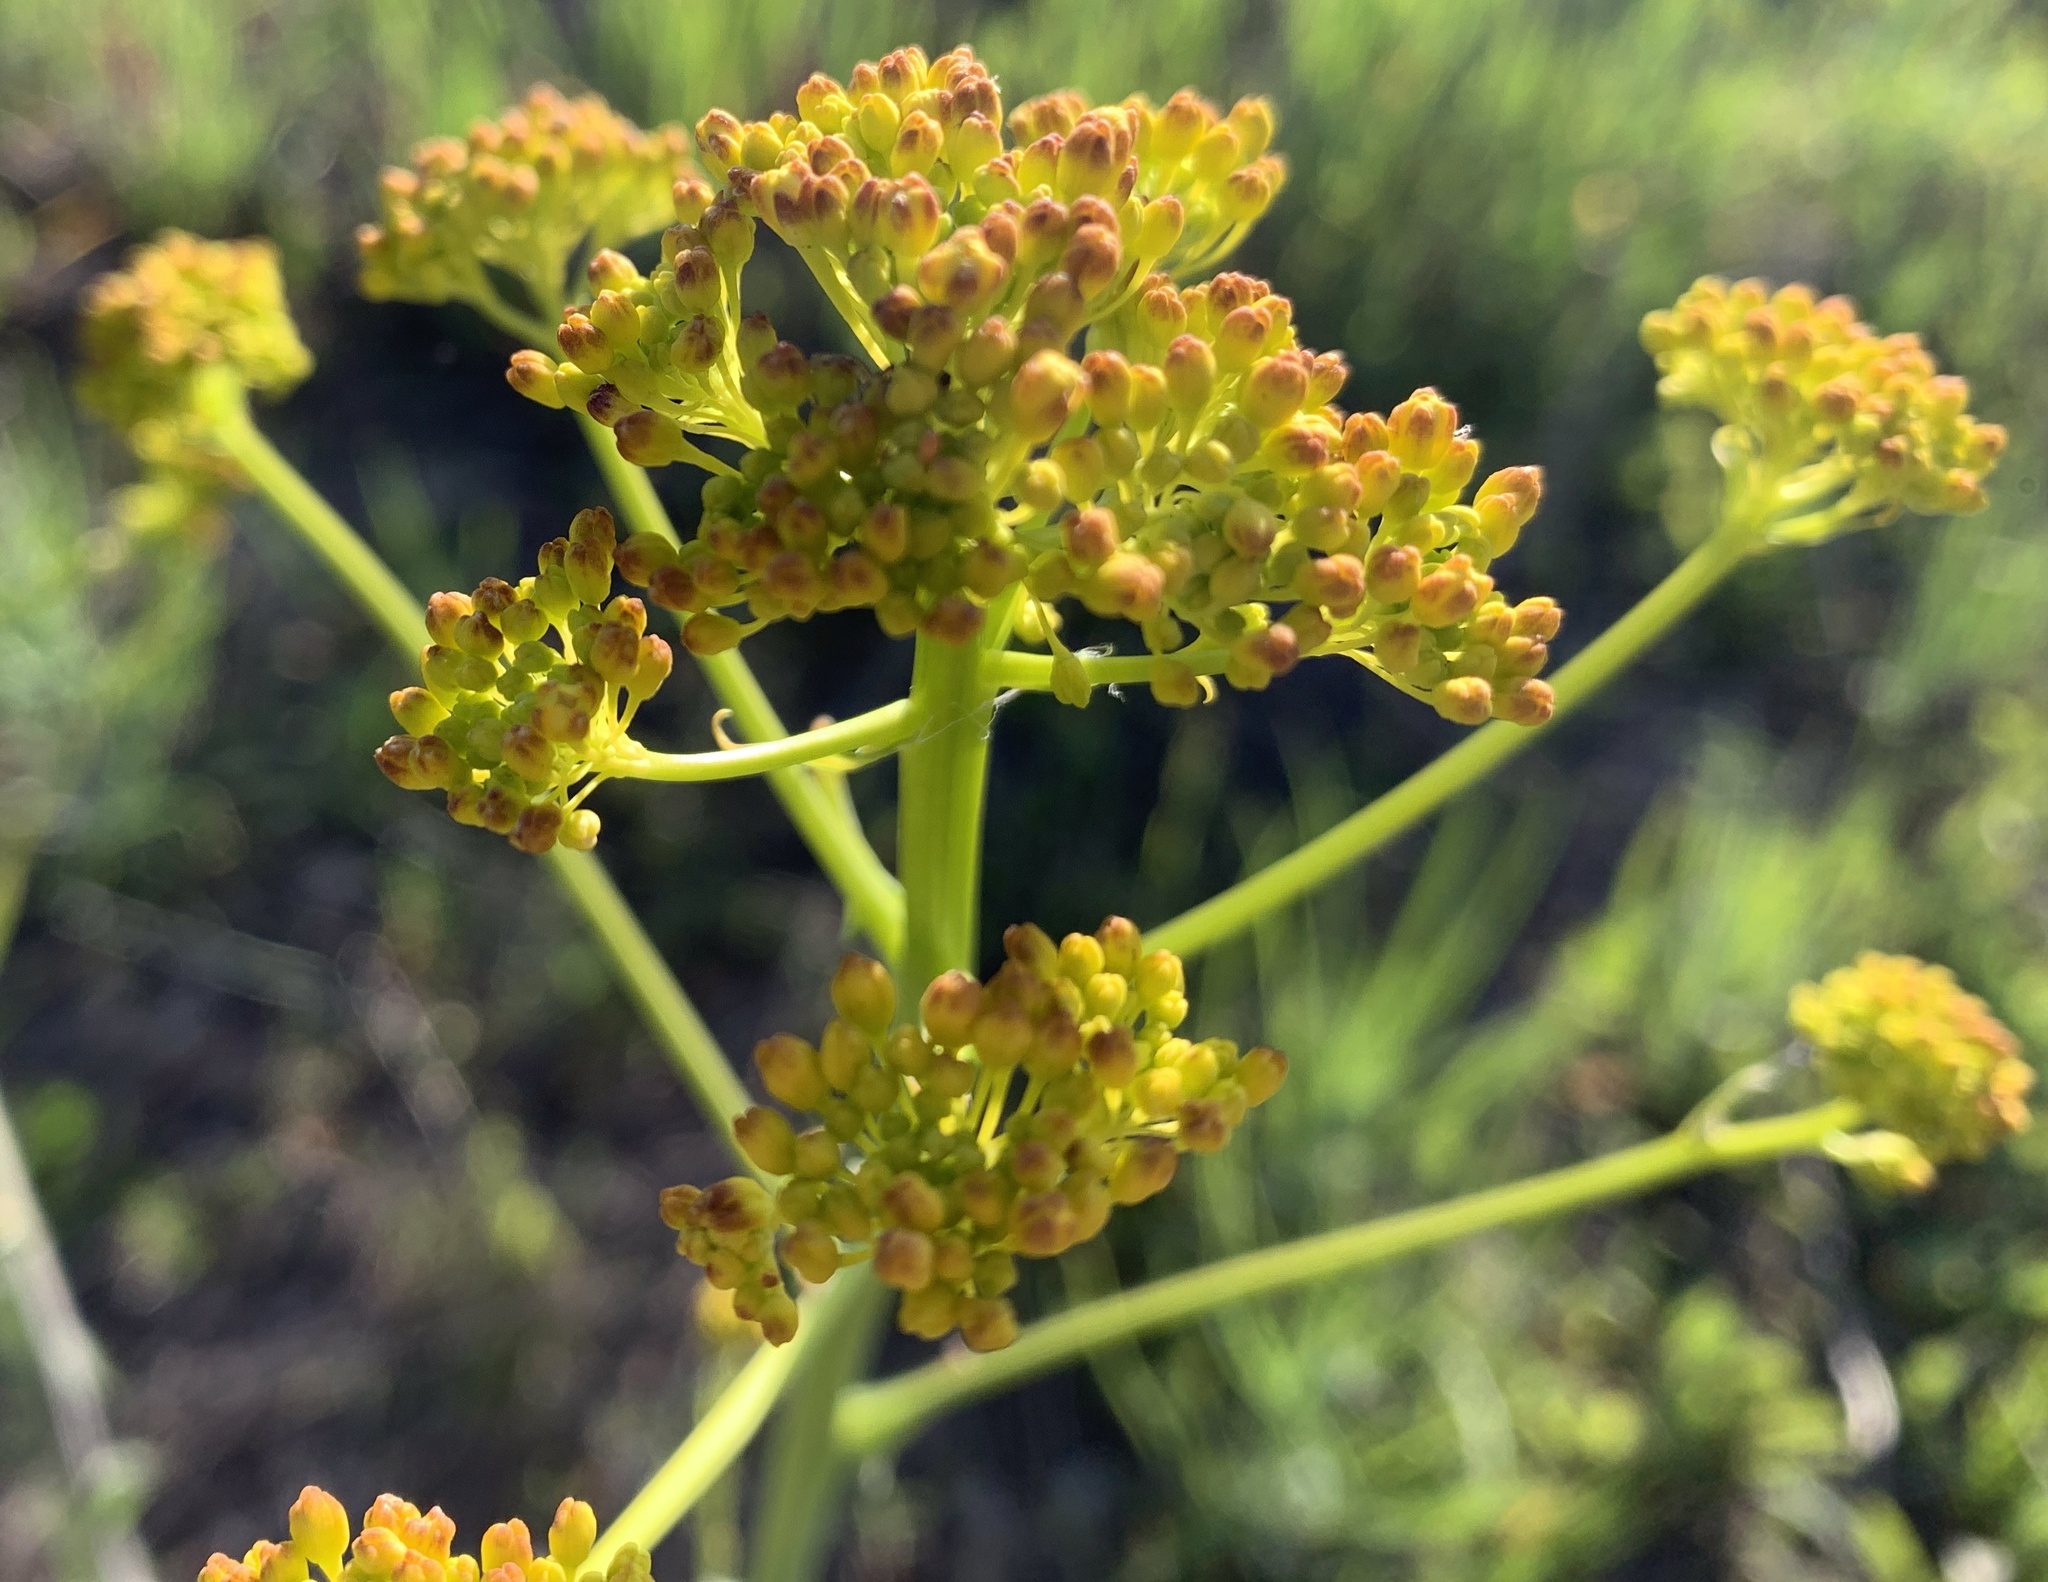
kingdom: Plantae
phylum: Tracheophyta
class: Magnoliopsida
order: Brassicales
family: Brassicaceae
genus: Isatis
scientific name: Isatis tinctoria
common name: Woad
